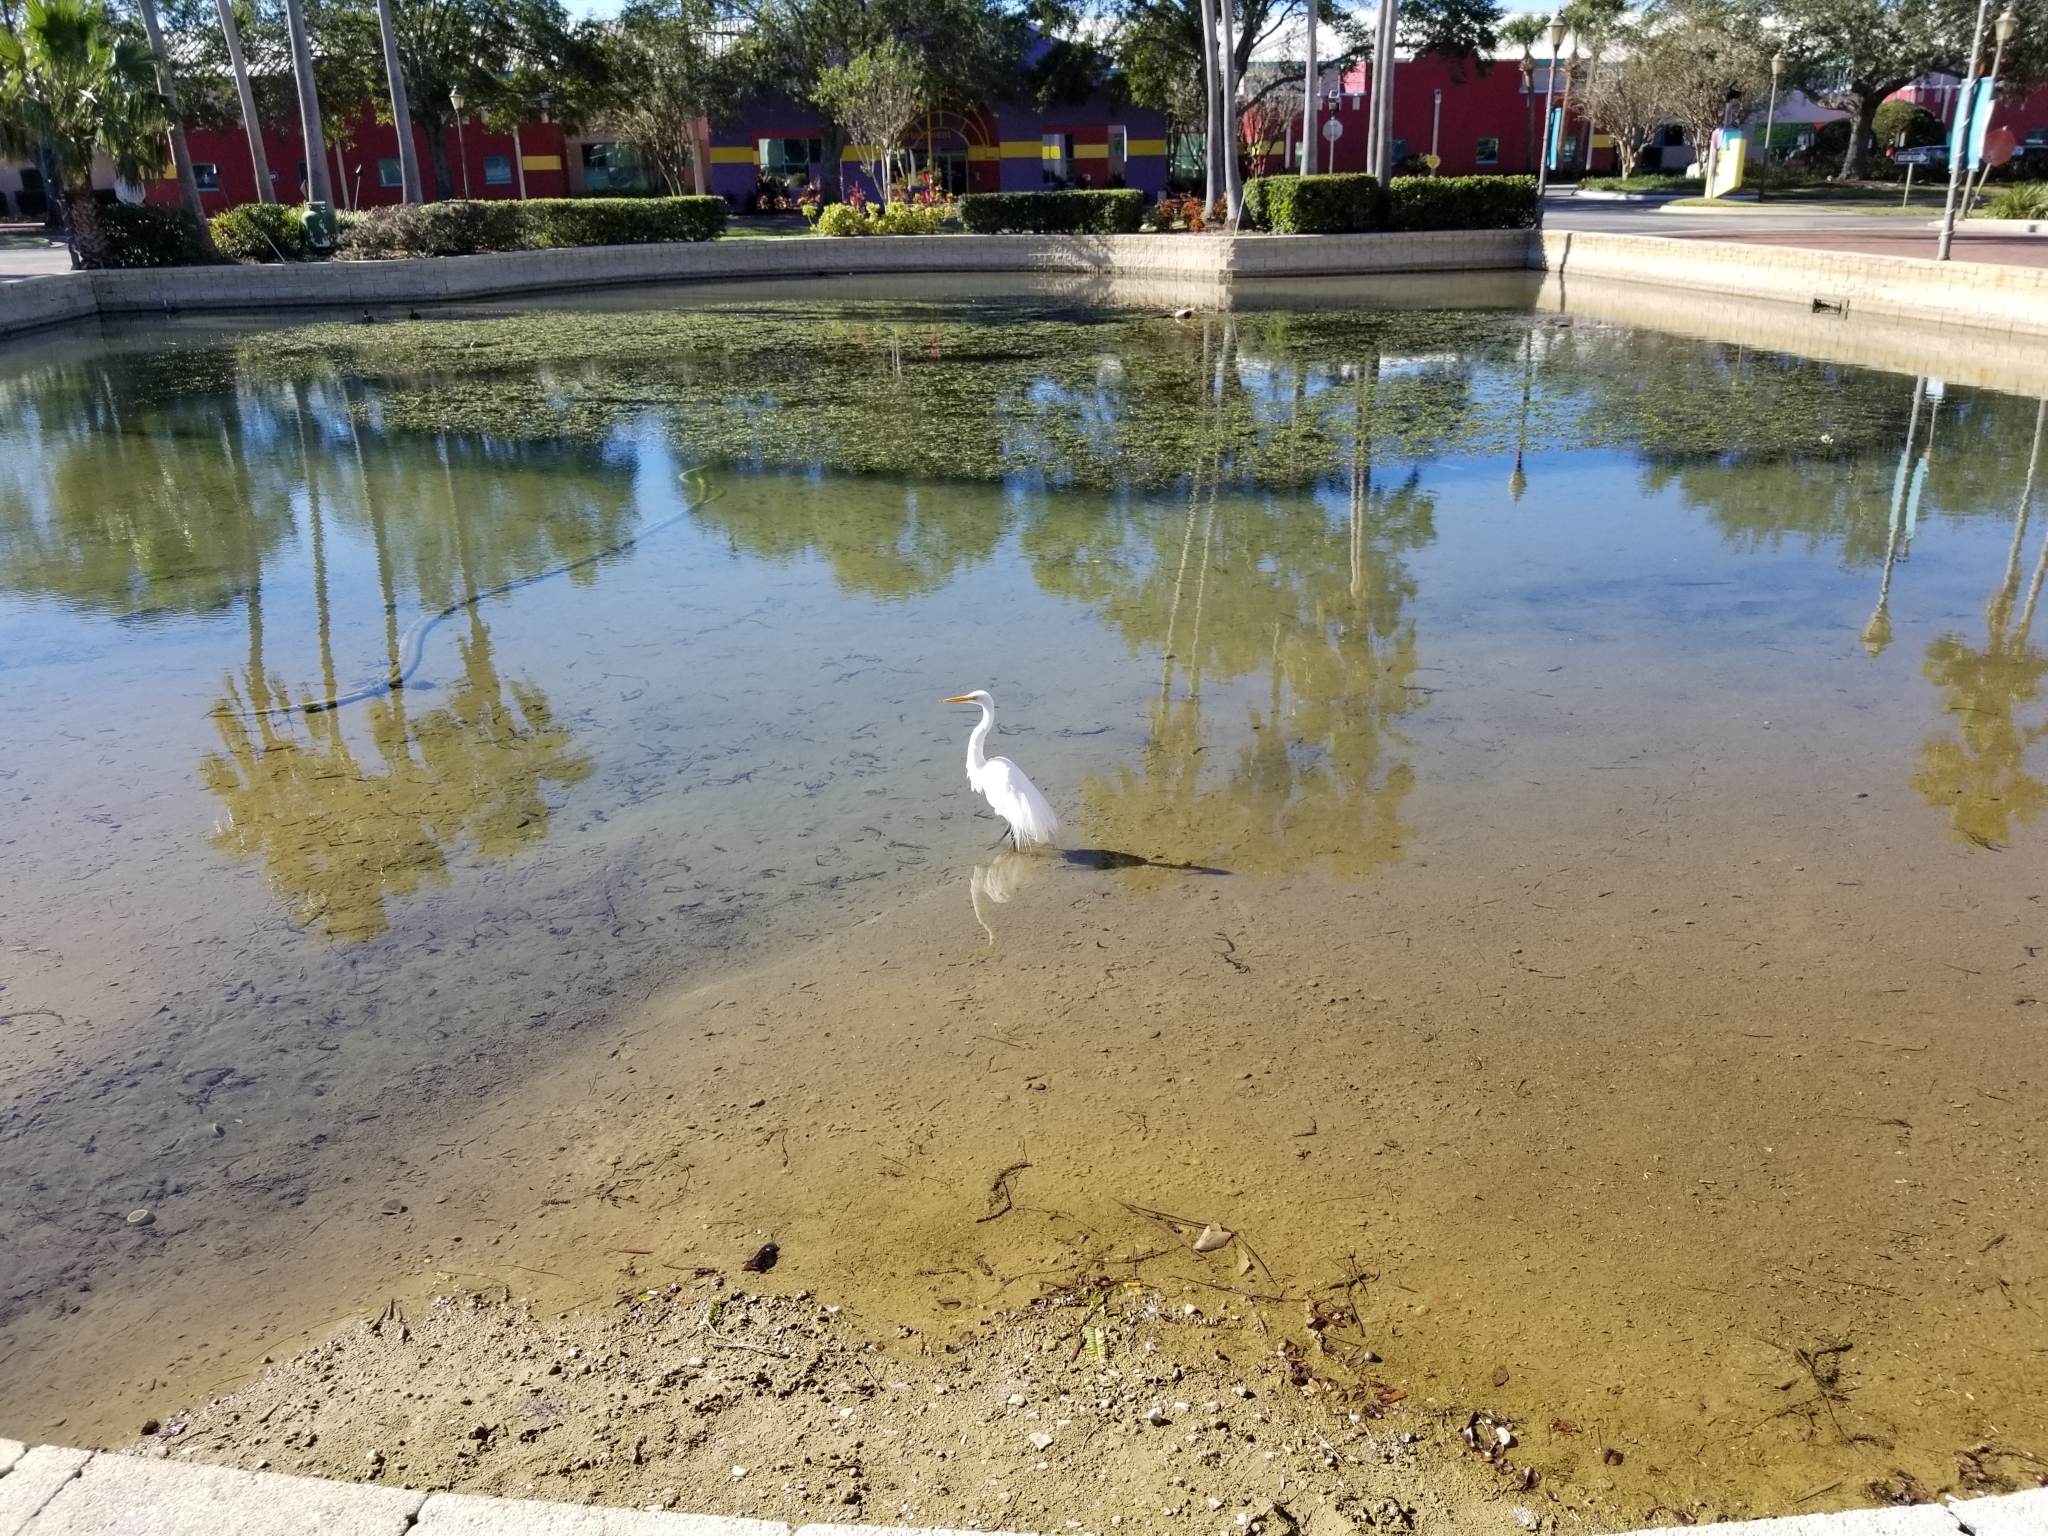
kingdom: Animalia
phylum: Chordata
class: Aves
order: Pelecaniformes
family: Ardeidae
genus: Ardea
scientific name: Ardea alba
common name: Great egret
